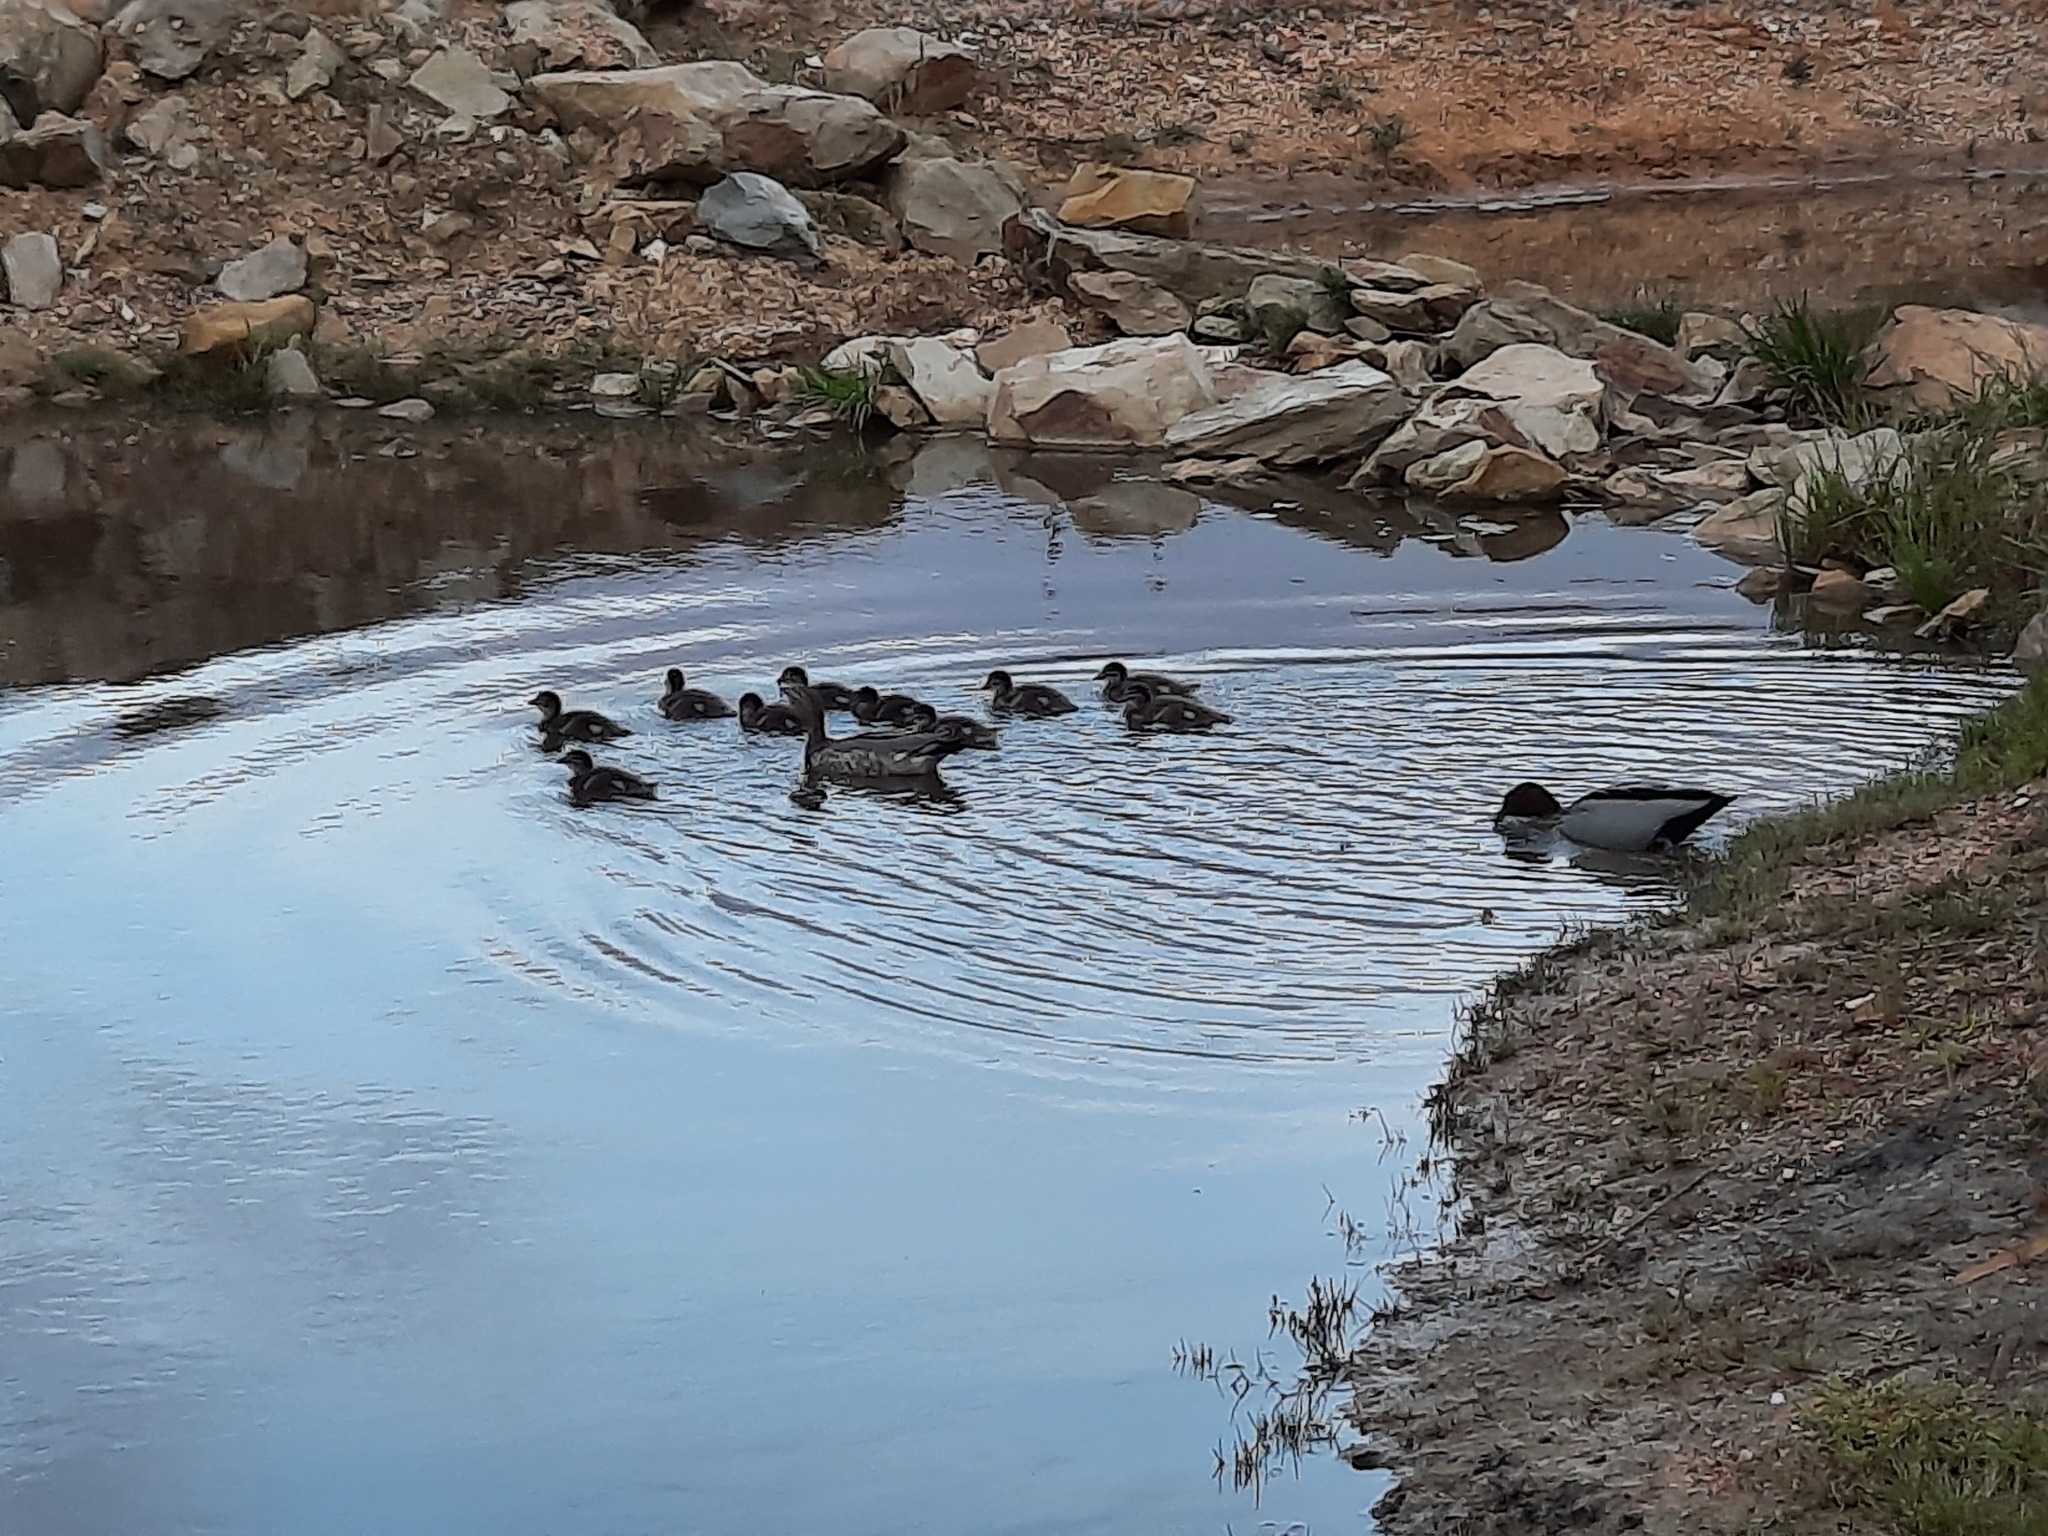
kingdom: Animalia
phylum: Chordata
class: Aves
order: Anseriformes
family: Anatidae
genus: Chenonetta
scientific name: Chenonetta jubata
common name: Maned duck
